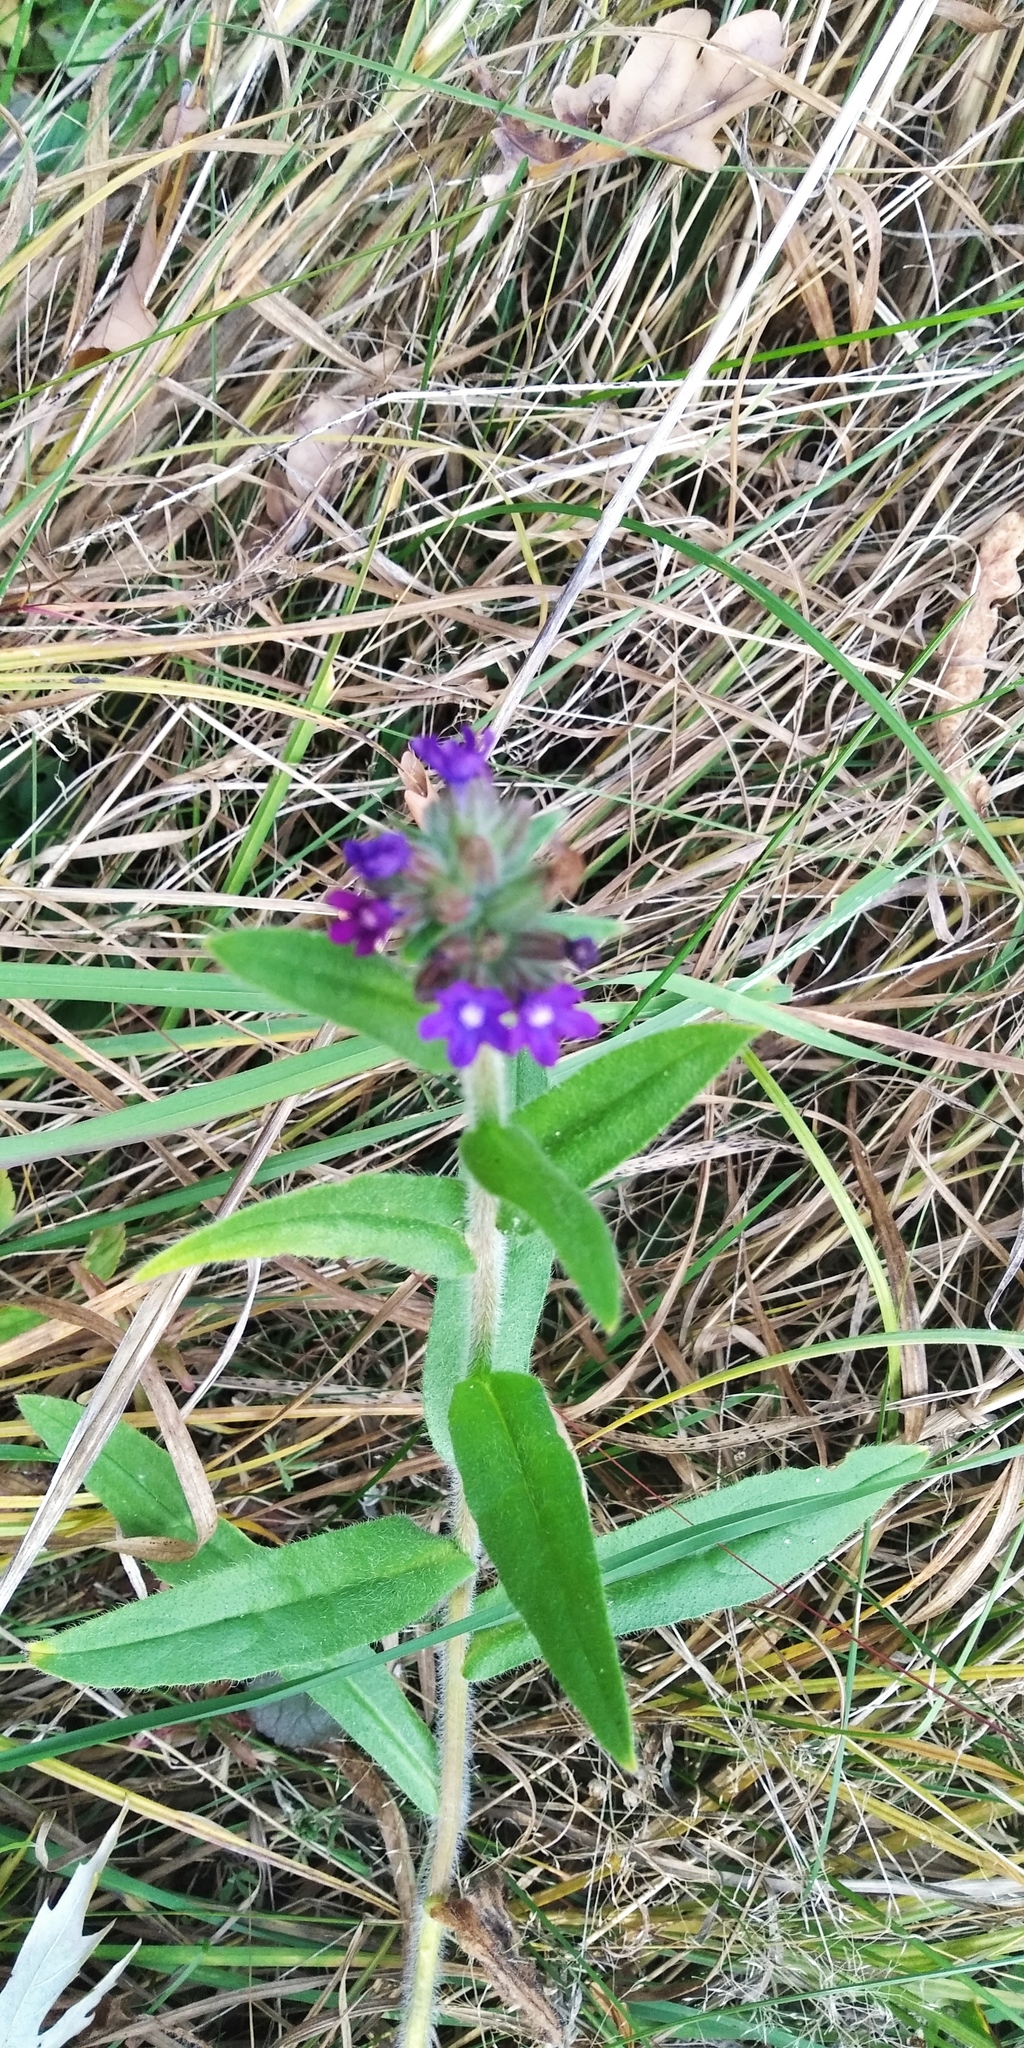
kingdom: Plantae
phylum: Tracheophyta
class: Magnoliopsida
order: Boraginales
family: Boraginaceae
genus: Anchusa
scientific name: Anchusa officinalis
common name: Alkanet
